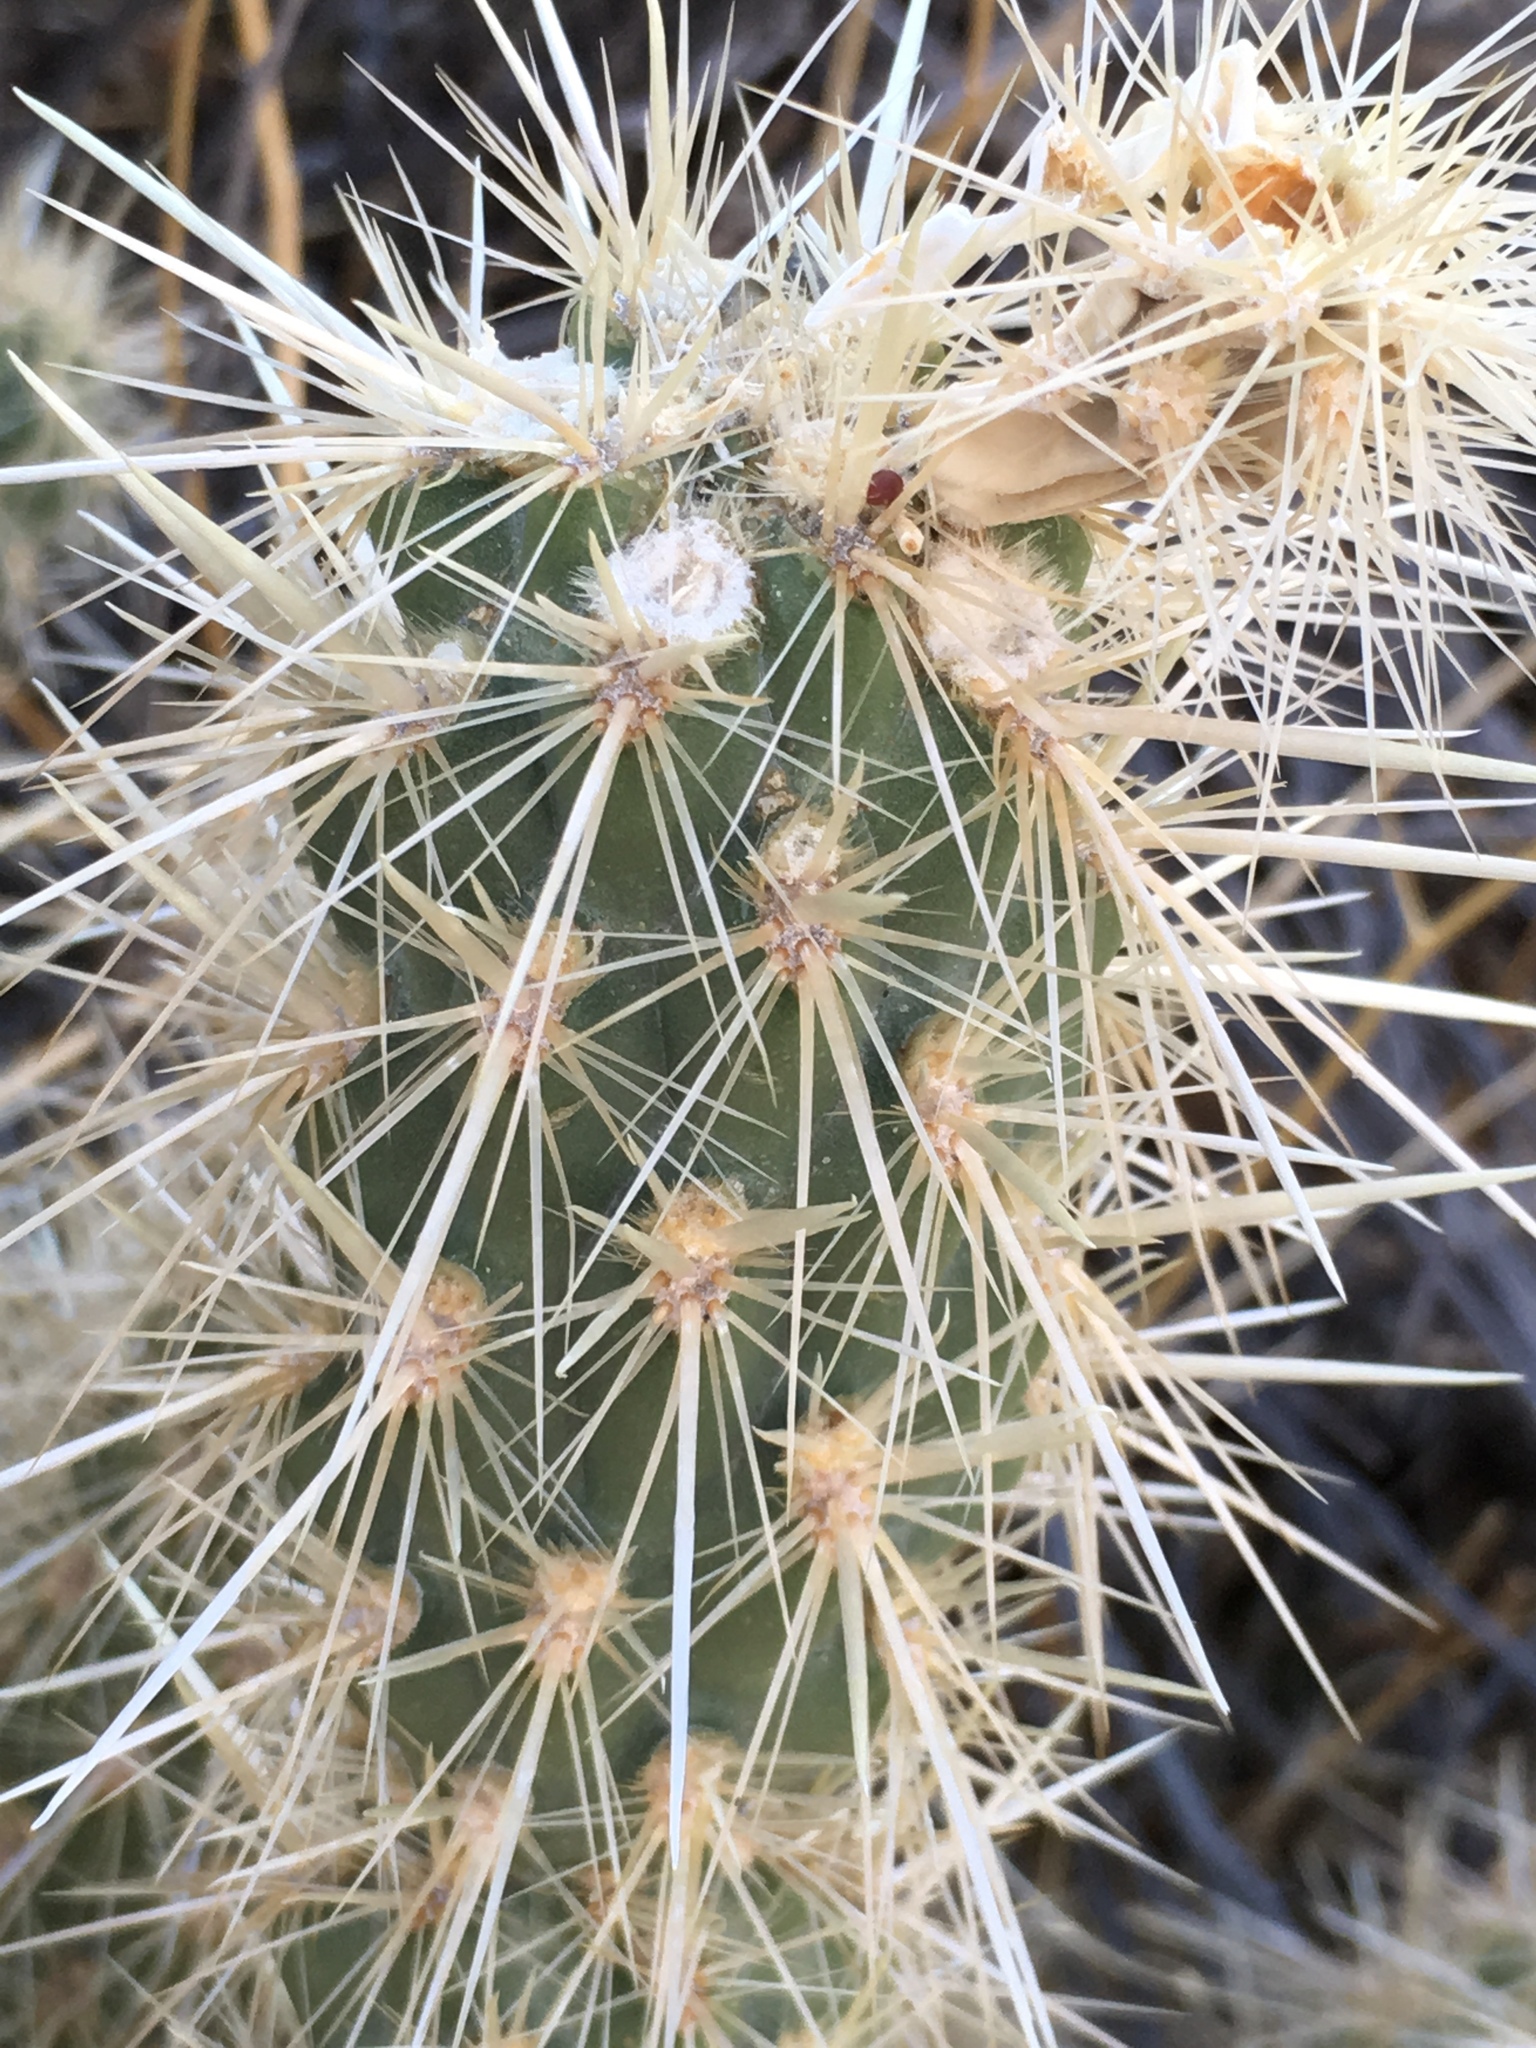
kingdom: Plantae
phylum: Tracheophyta
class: Magnoliopsida
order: Caryophyllales
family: Cactaceae
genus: Cylindropuntia
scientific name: Cylindropuntia ganderi
